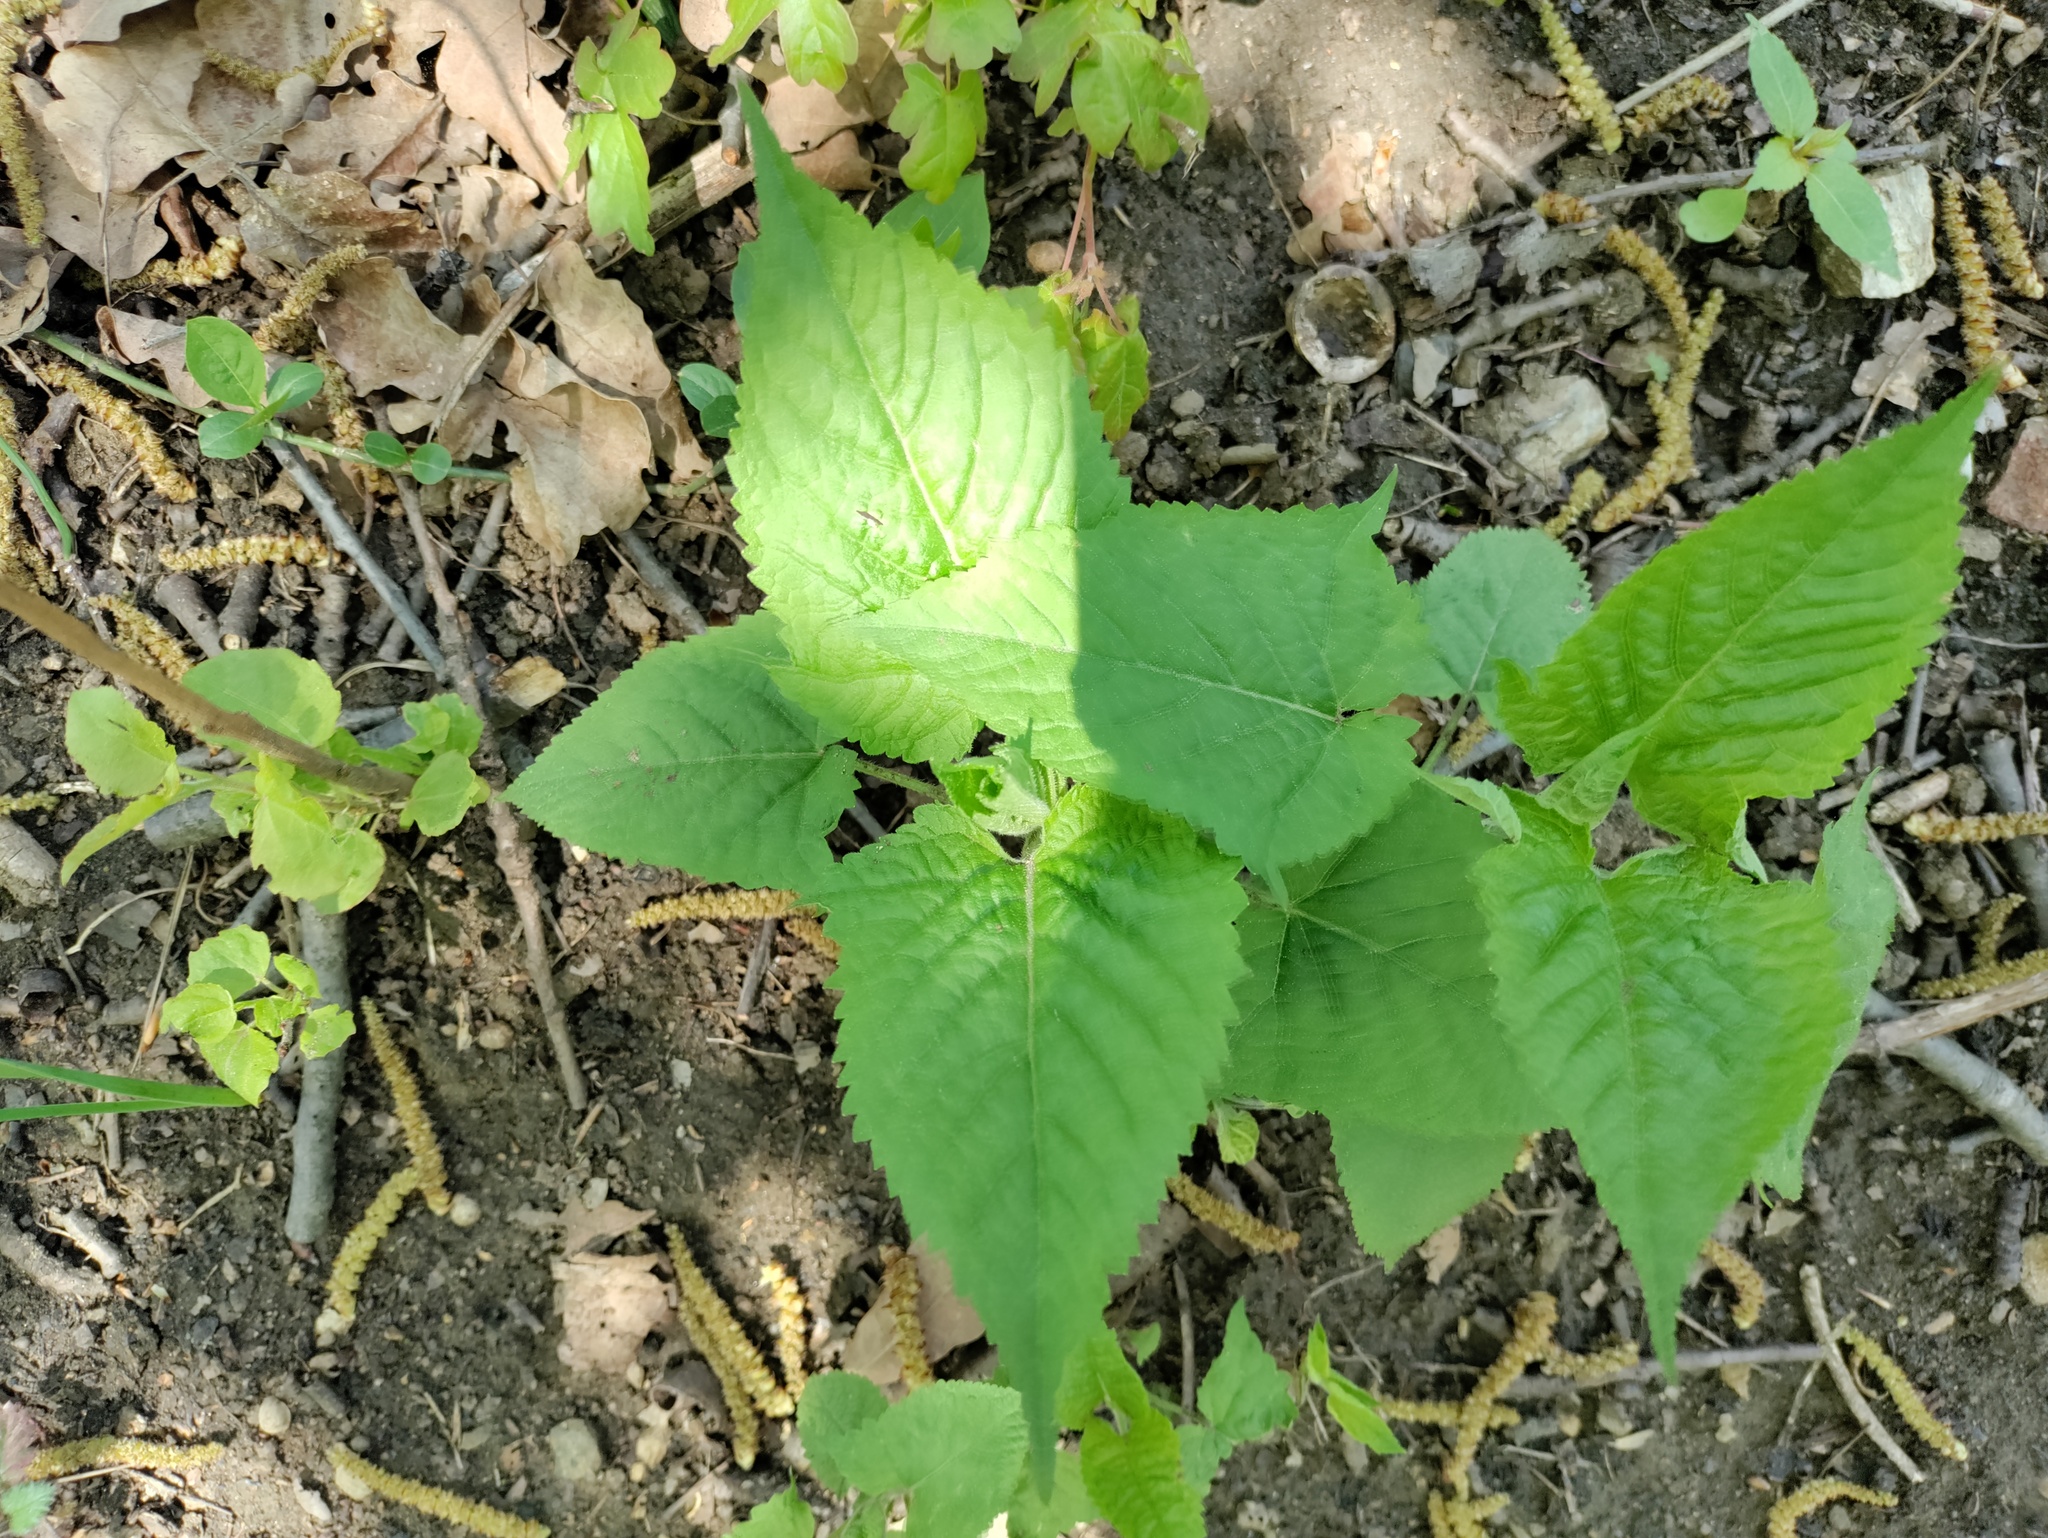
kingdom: Plantae
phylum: Tracheophyta
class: Magnoliopsida
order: Lamiales
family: Lamiaceae
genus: Salvia
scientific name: Salvia glutinosa
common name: Sticky clary
